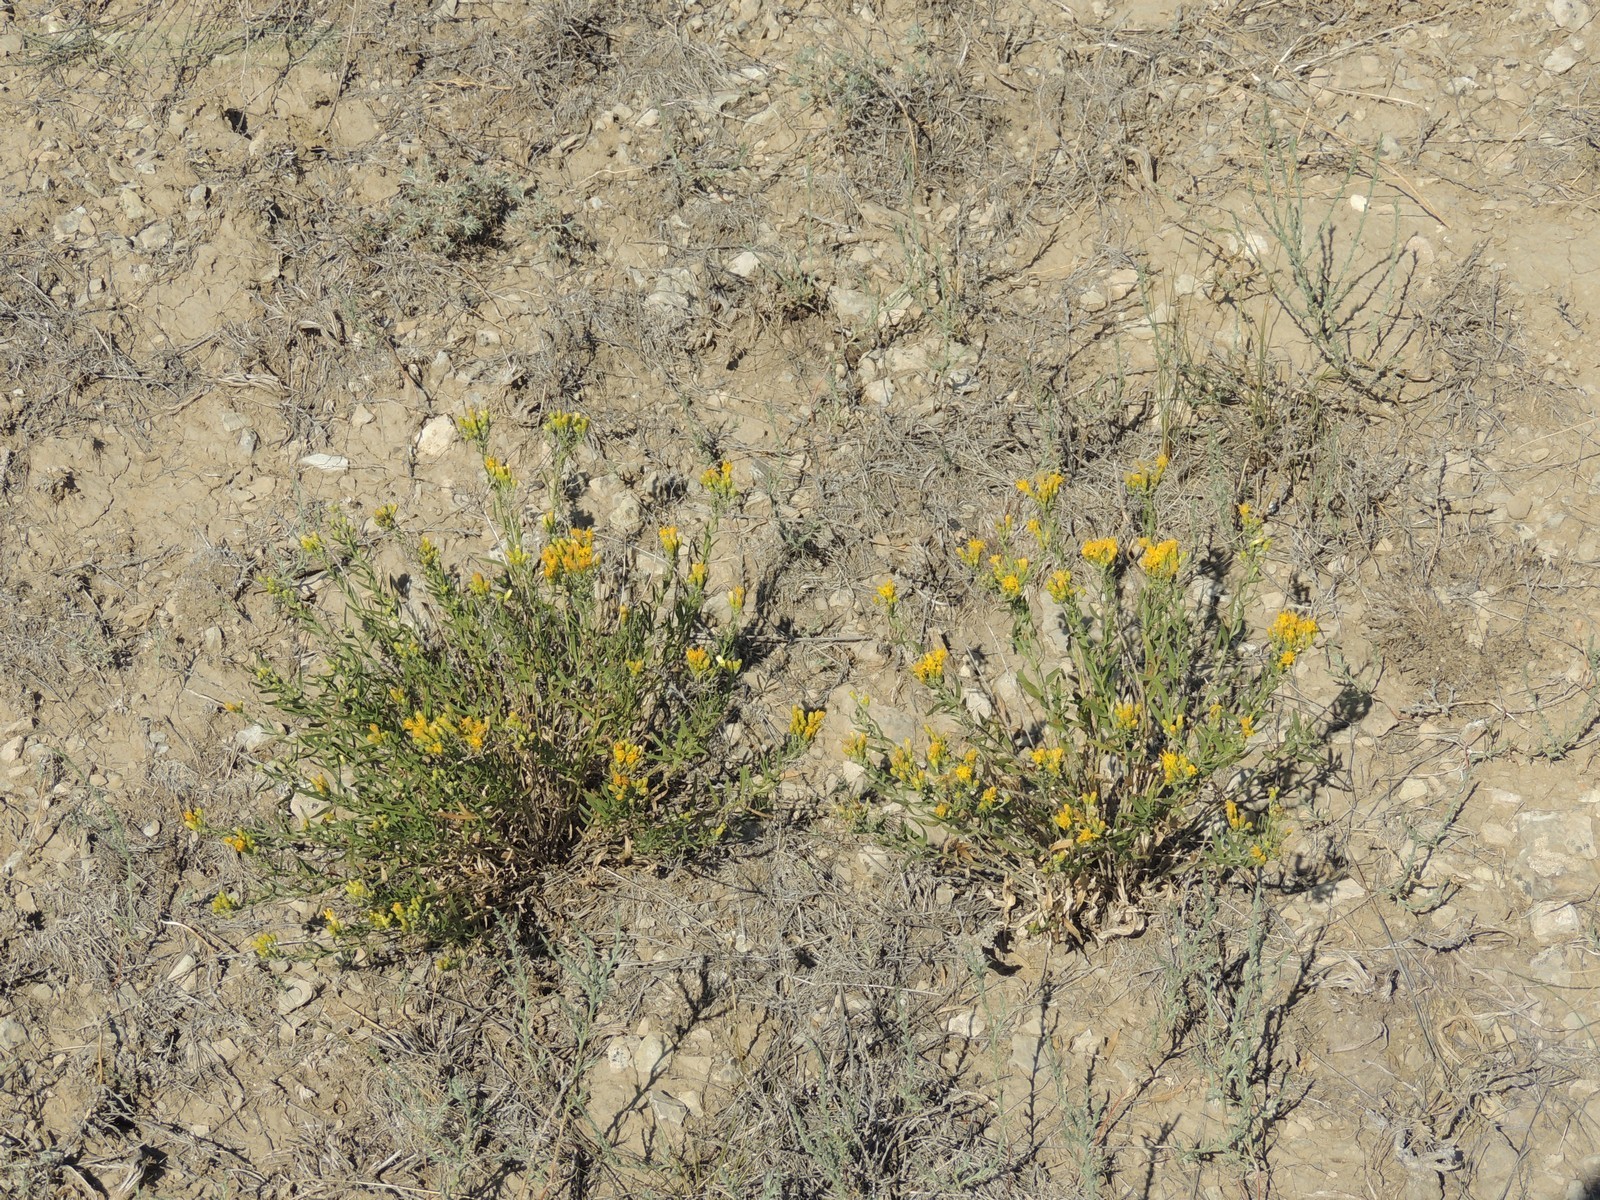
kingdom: Plantae
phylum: Tracheophyta
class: Magnoliopsida
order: Asterales
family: Asteraceae
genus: Galatella
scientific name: Galatella sedifolia
